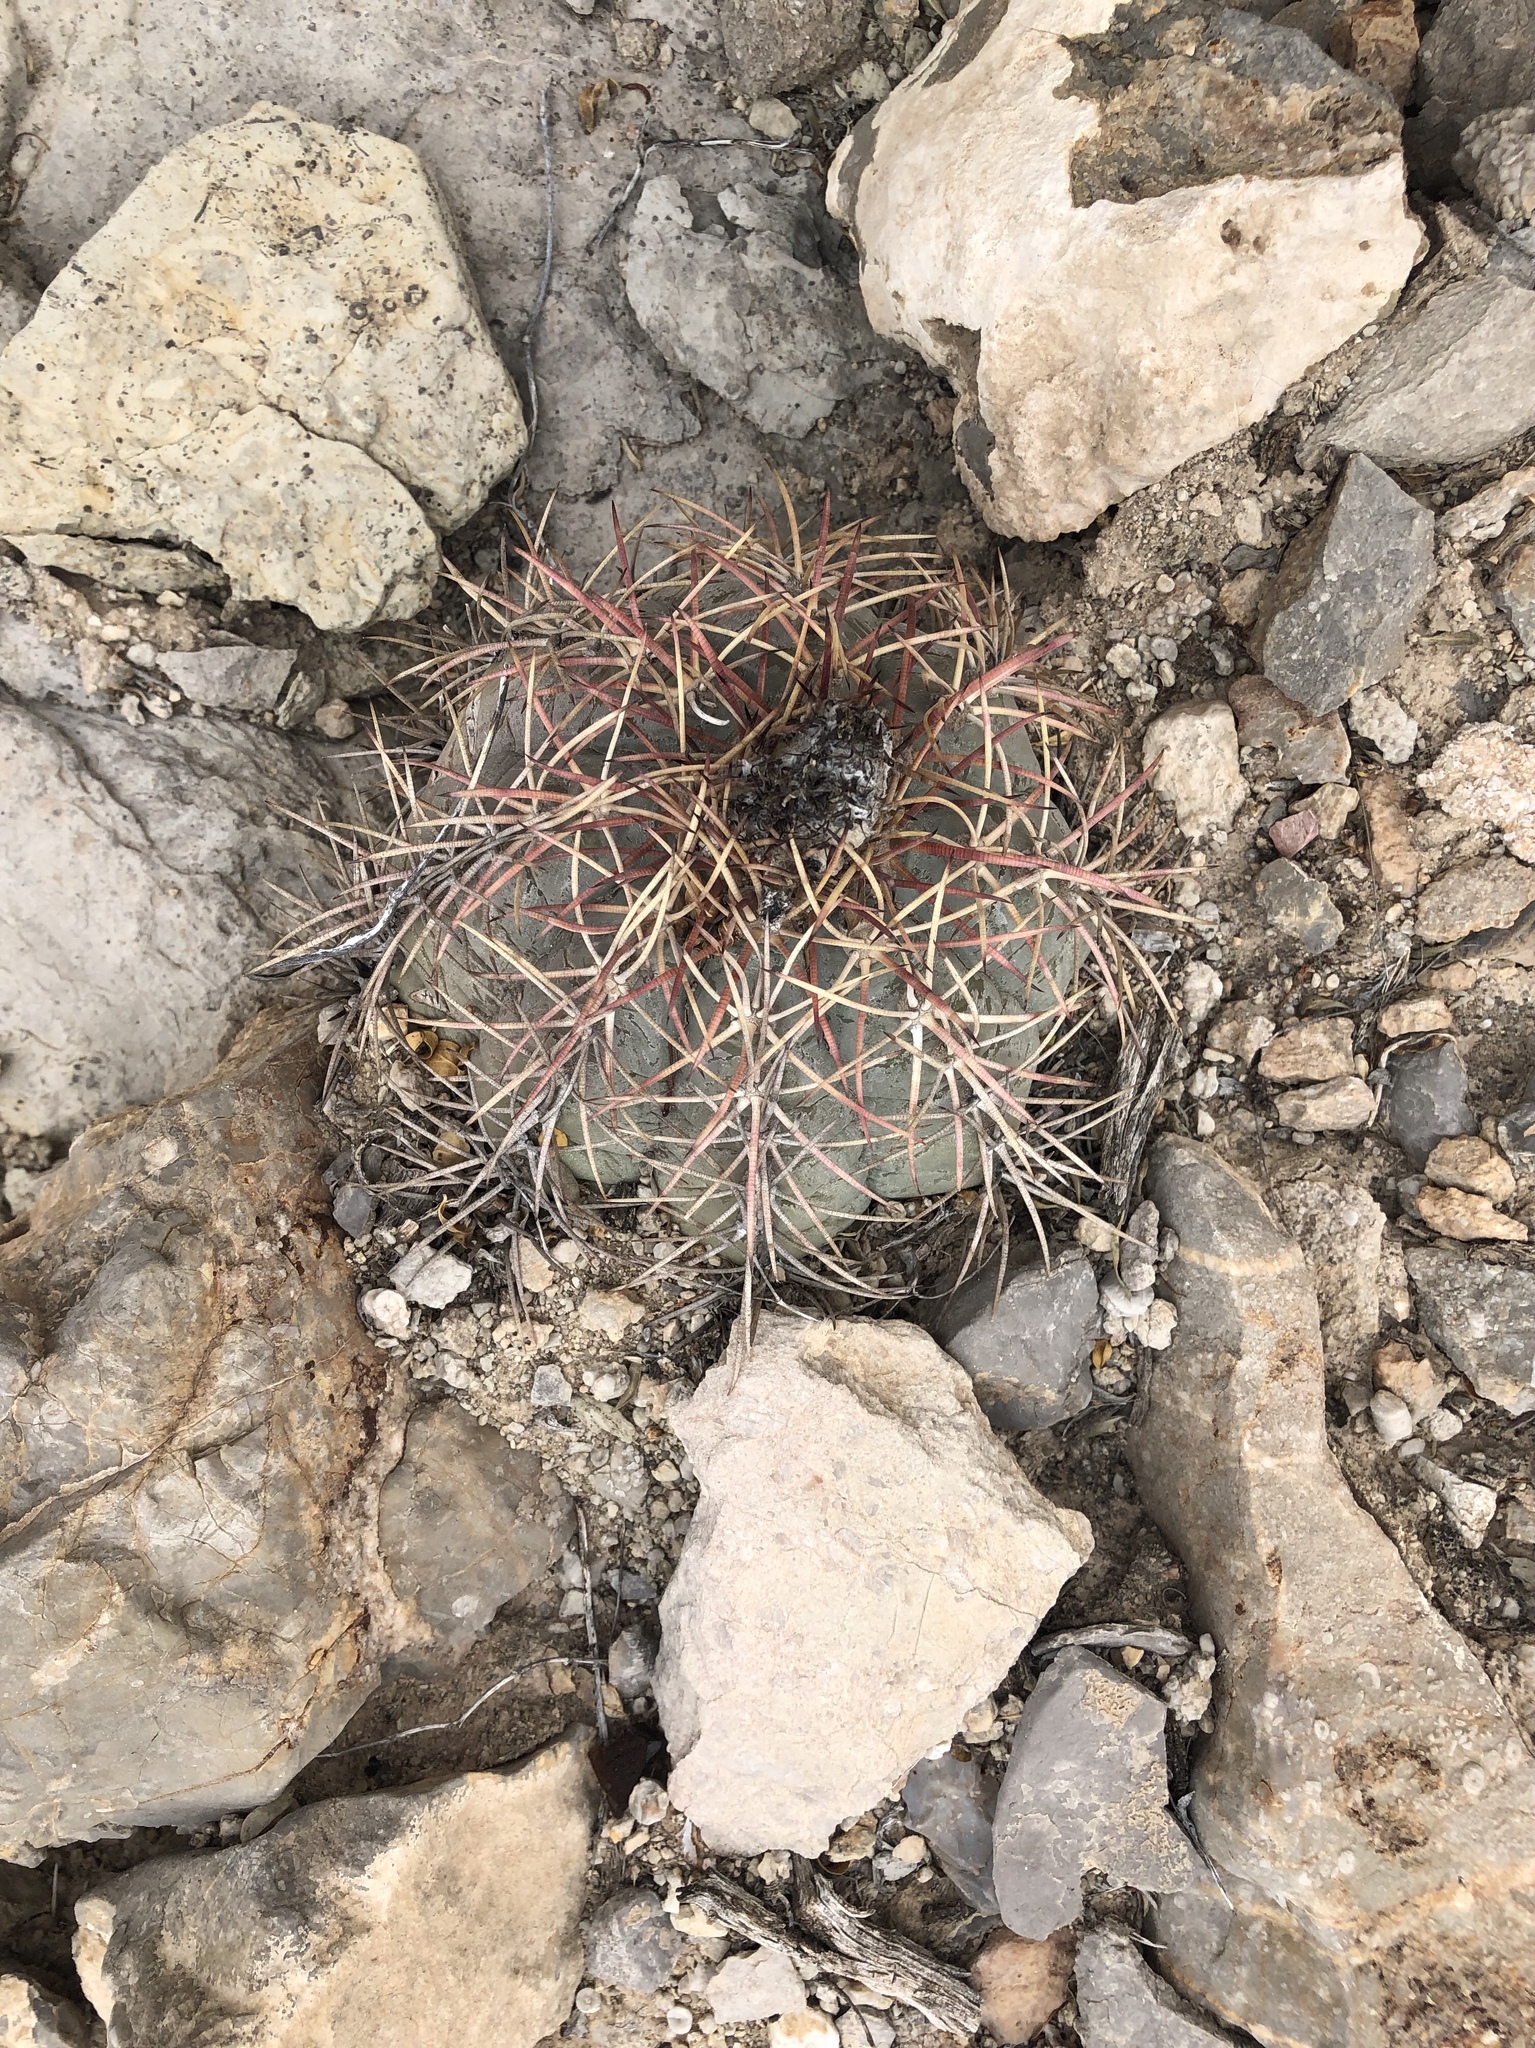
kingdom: Plantae
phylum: Tracheophyta
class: Magnoliopsida
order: Caryophyllales
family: Cactaceae
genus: Echinocactus
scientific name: Echinocactus horizonthalonius
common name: Devilshead
